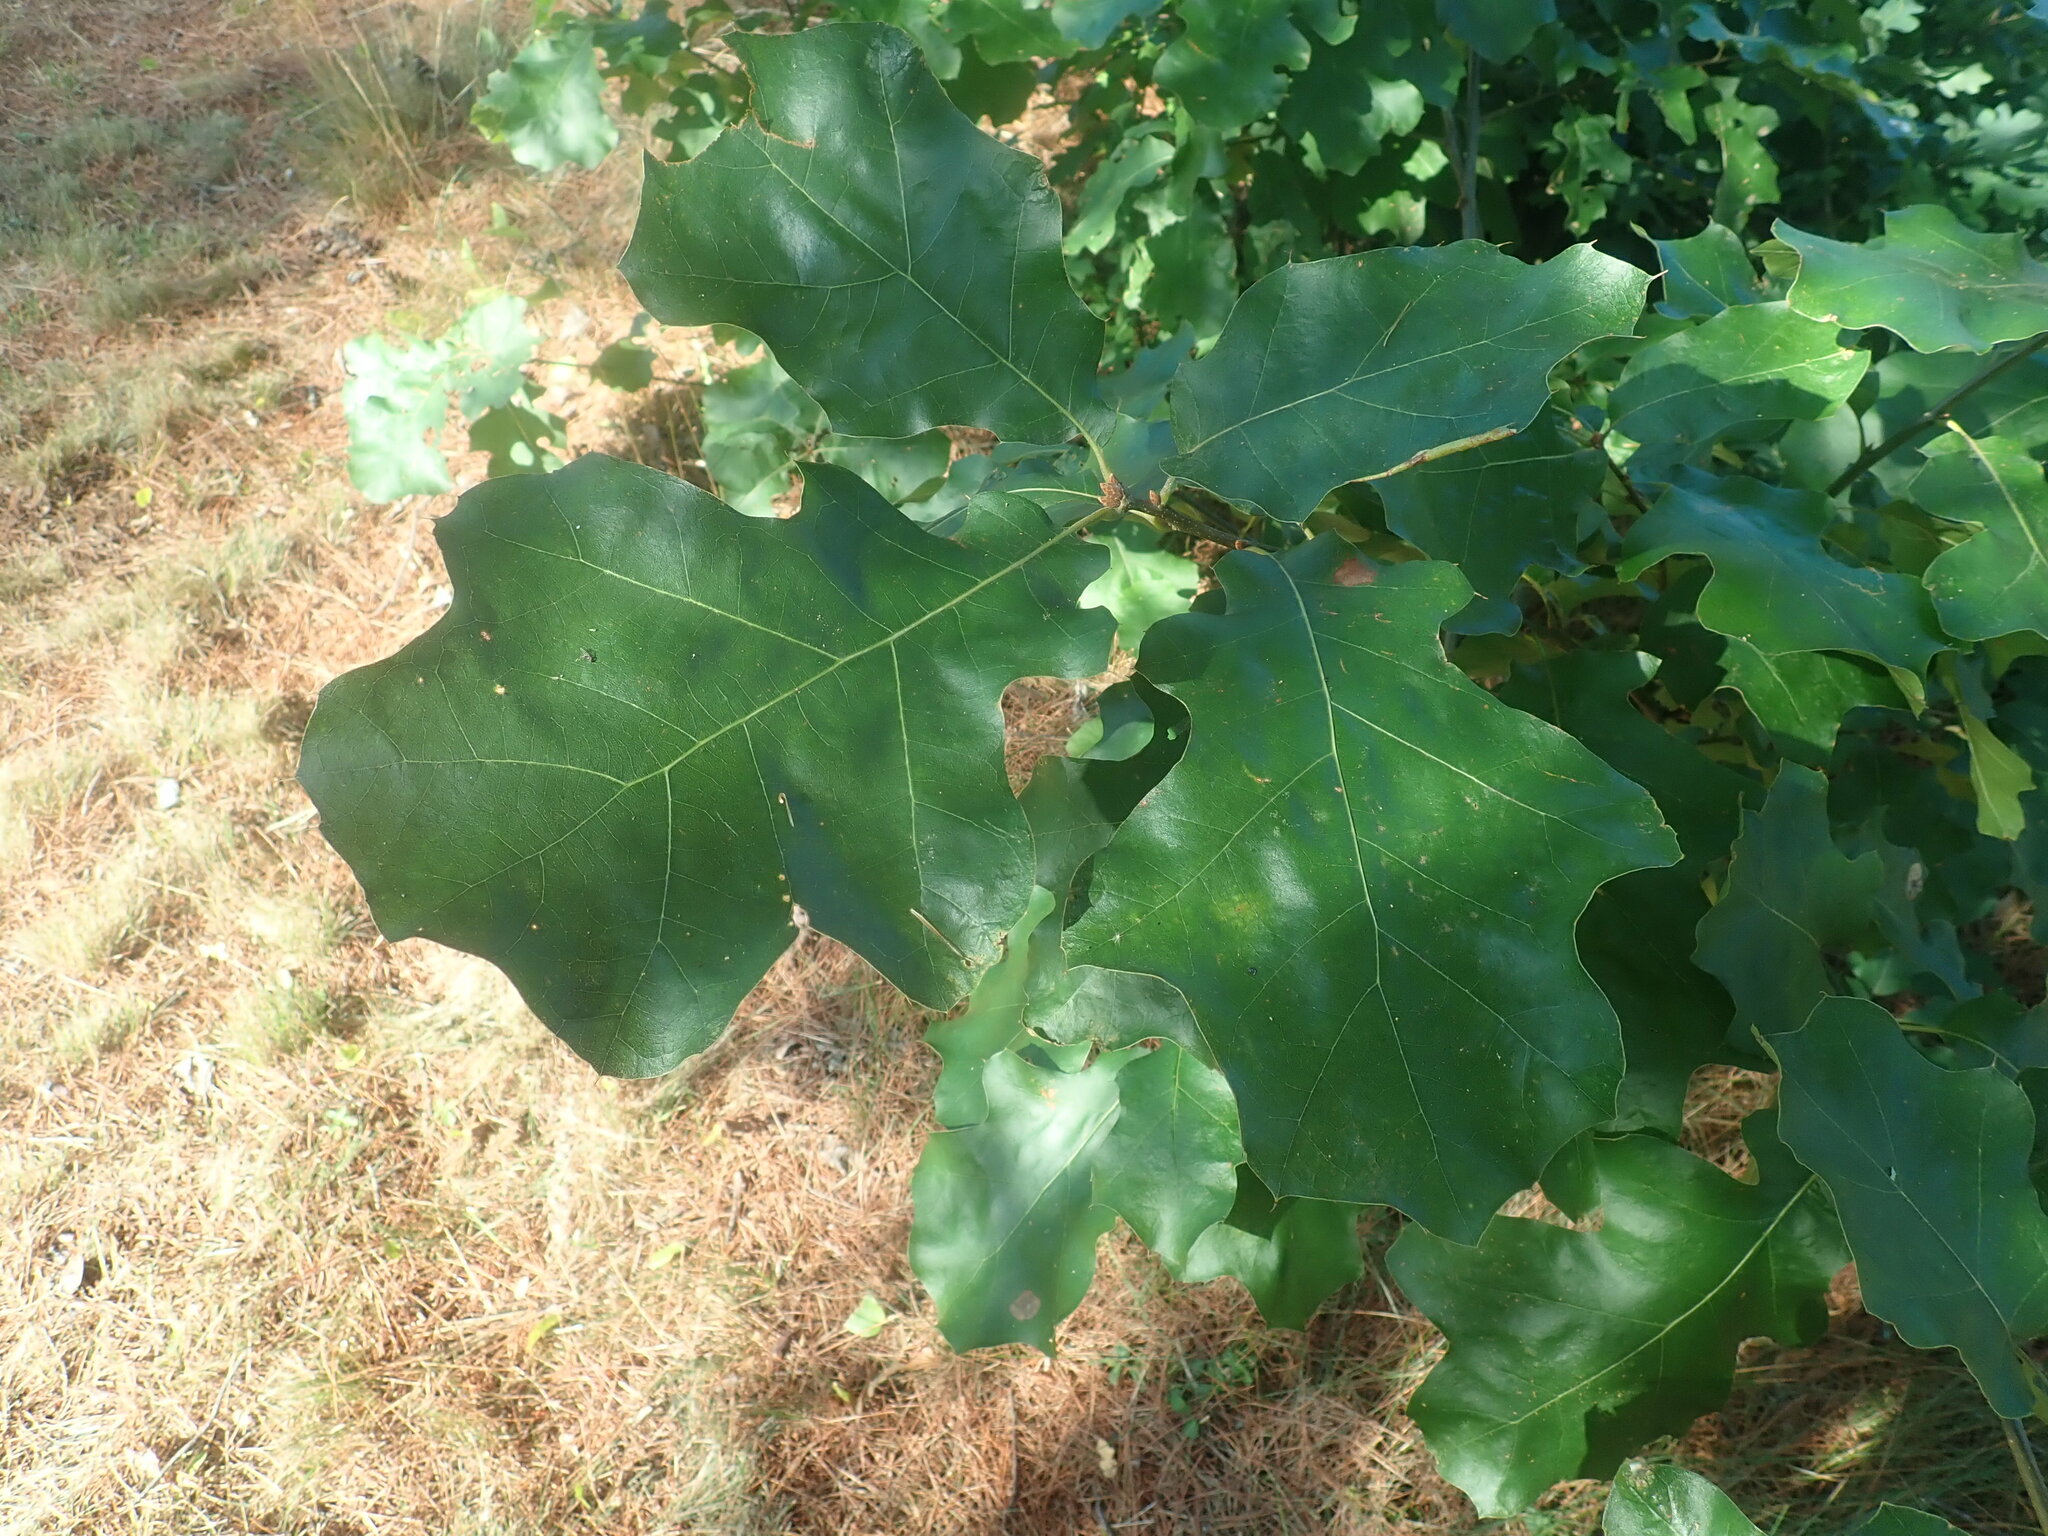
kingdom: Plantae
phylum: Tracheophyta
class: Magnoliopsida
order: Fagales
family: Fagaceae
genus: Quercus
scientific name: Quercus velutina
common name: Black oak
